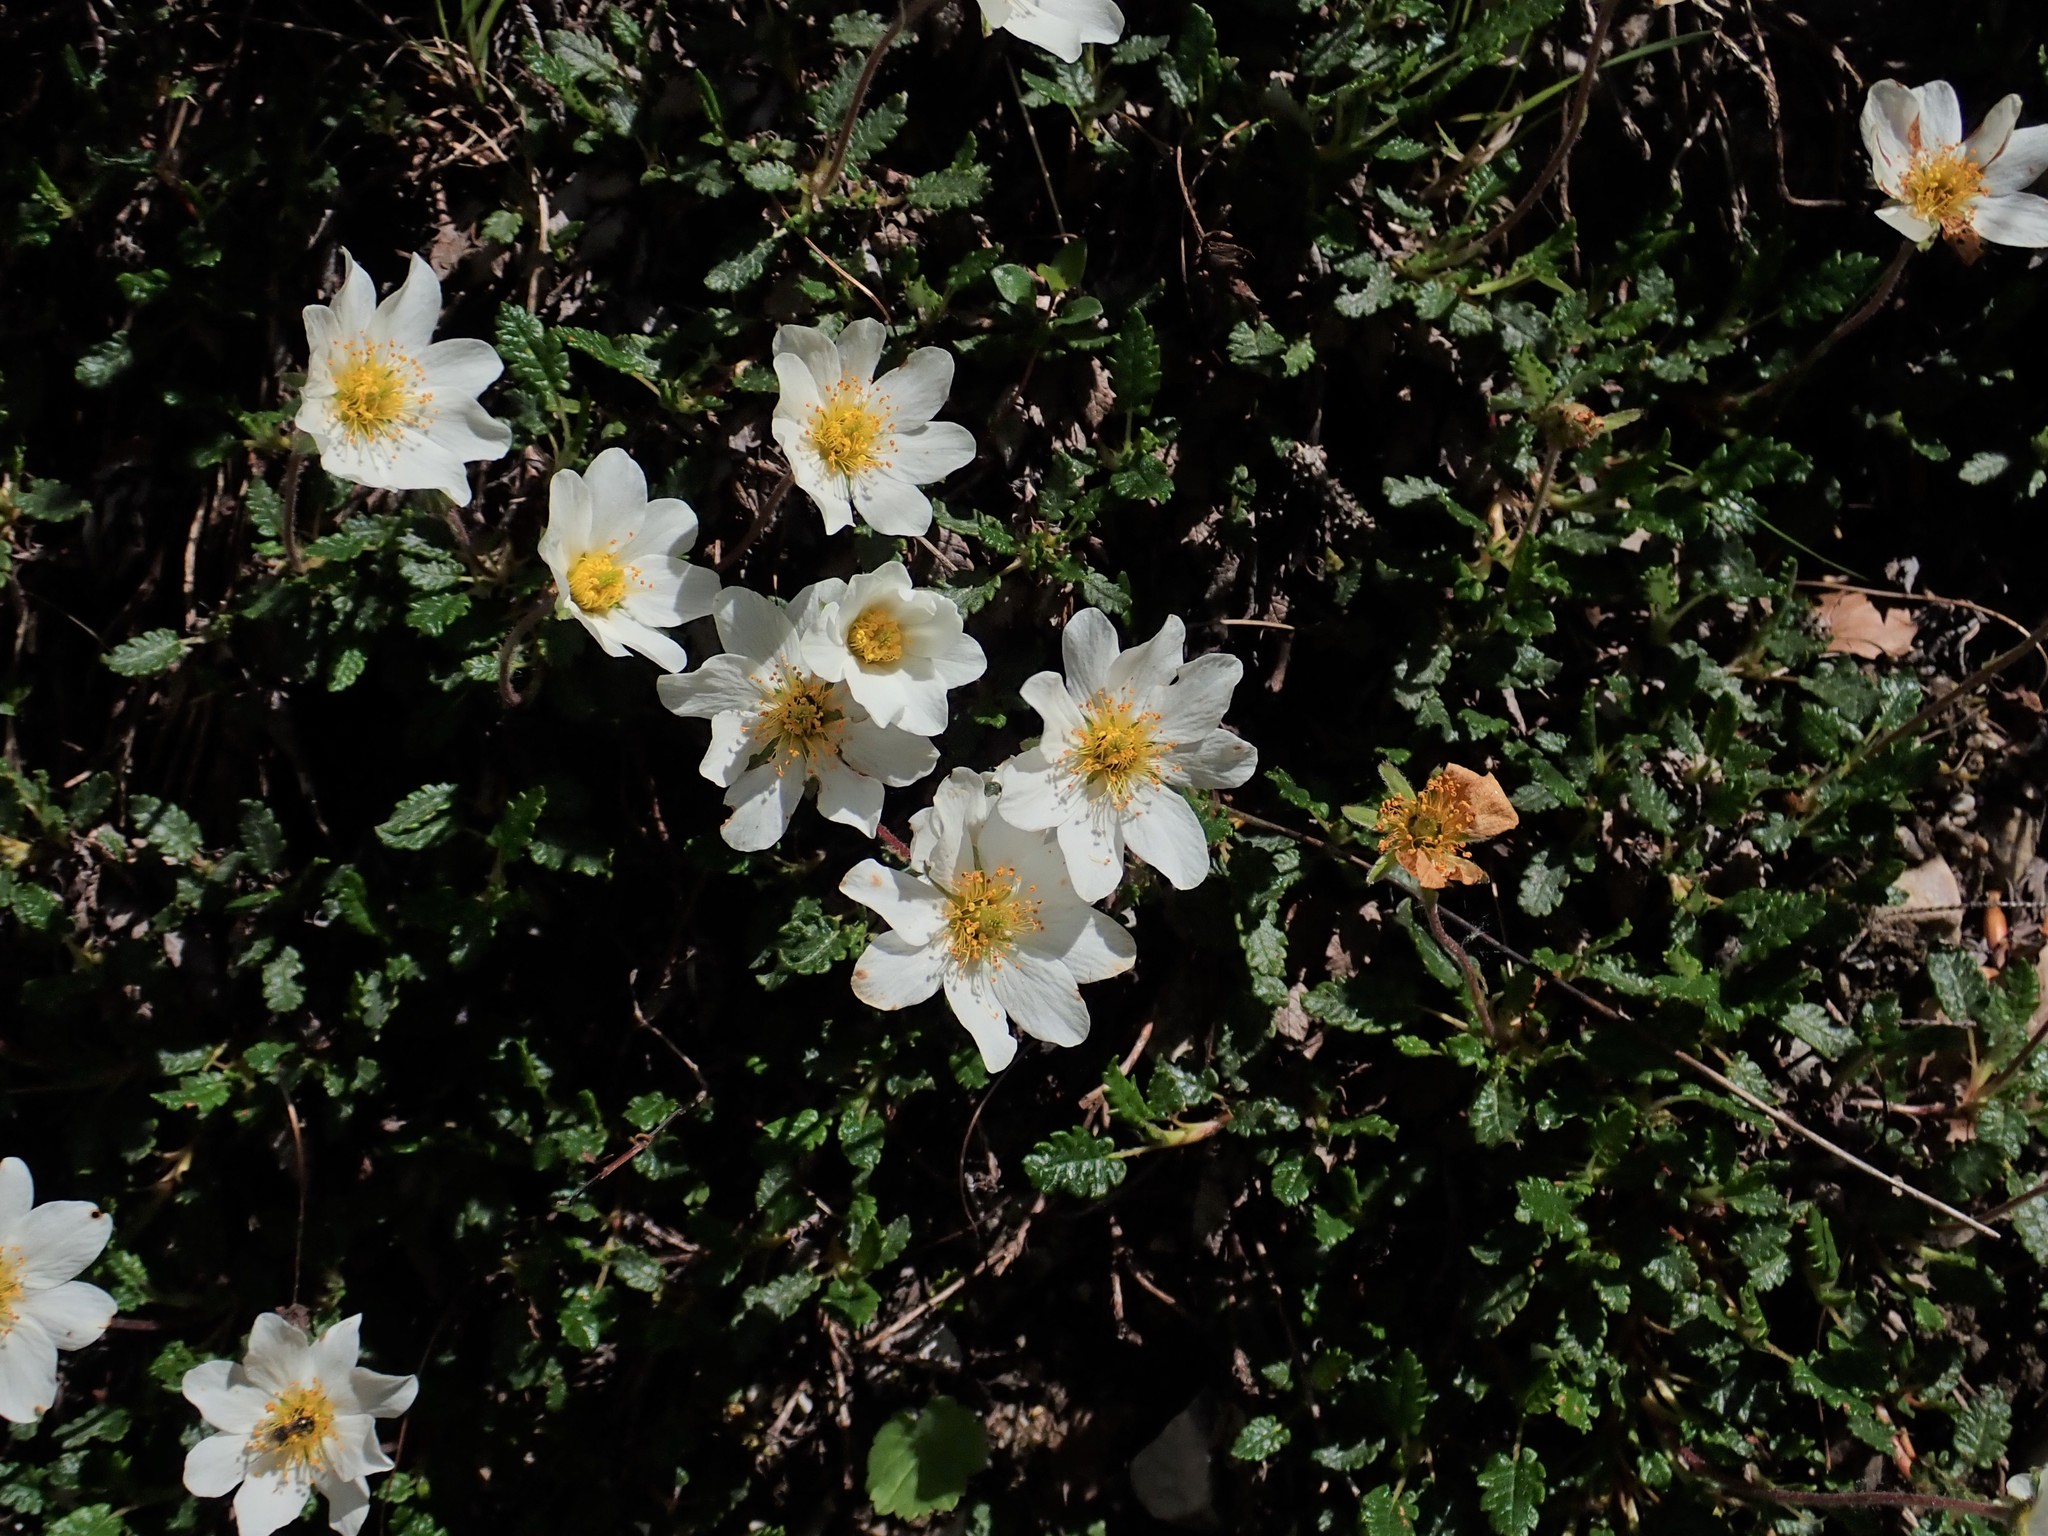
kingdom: Plantae
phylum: Tracheophyta
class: Magnoliopsida
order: Rosales
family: Rosaceae
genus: Dryas
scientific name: Dryas octopetala
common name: Eight-petal mountain-avens
